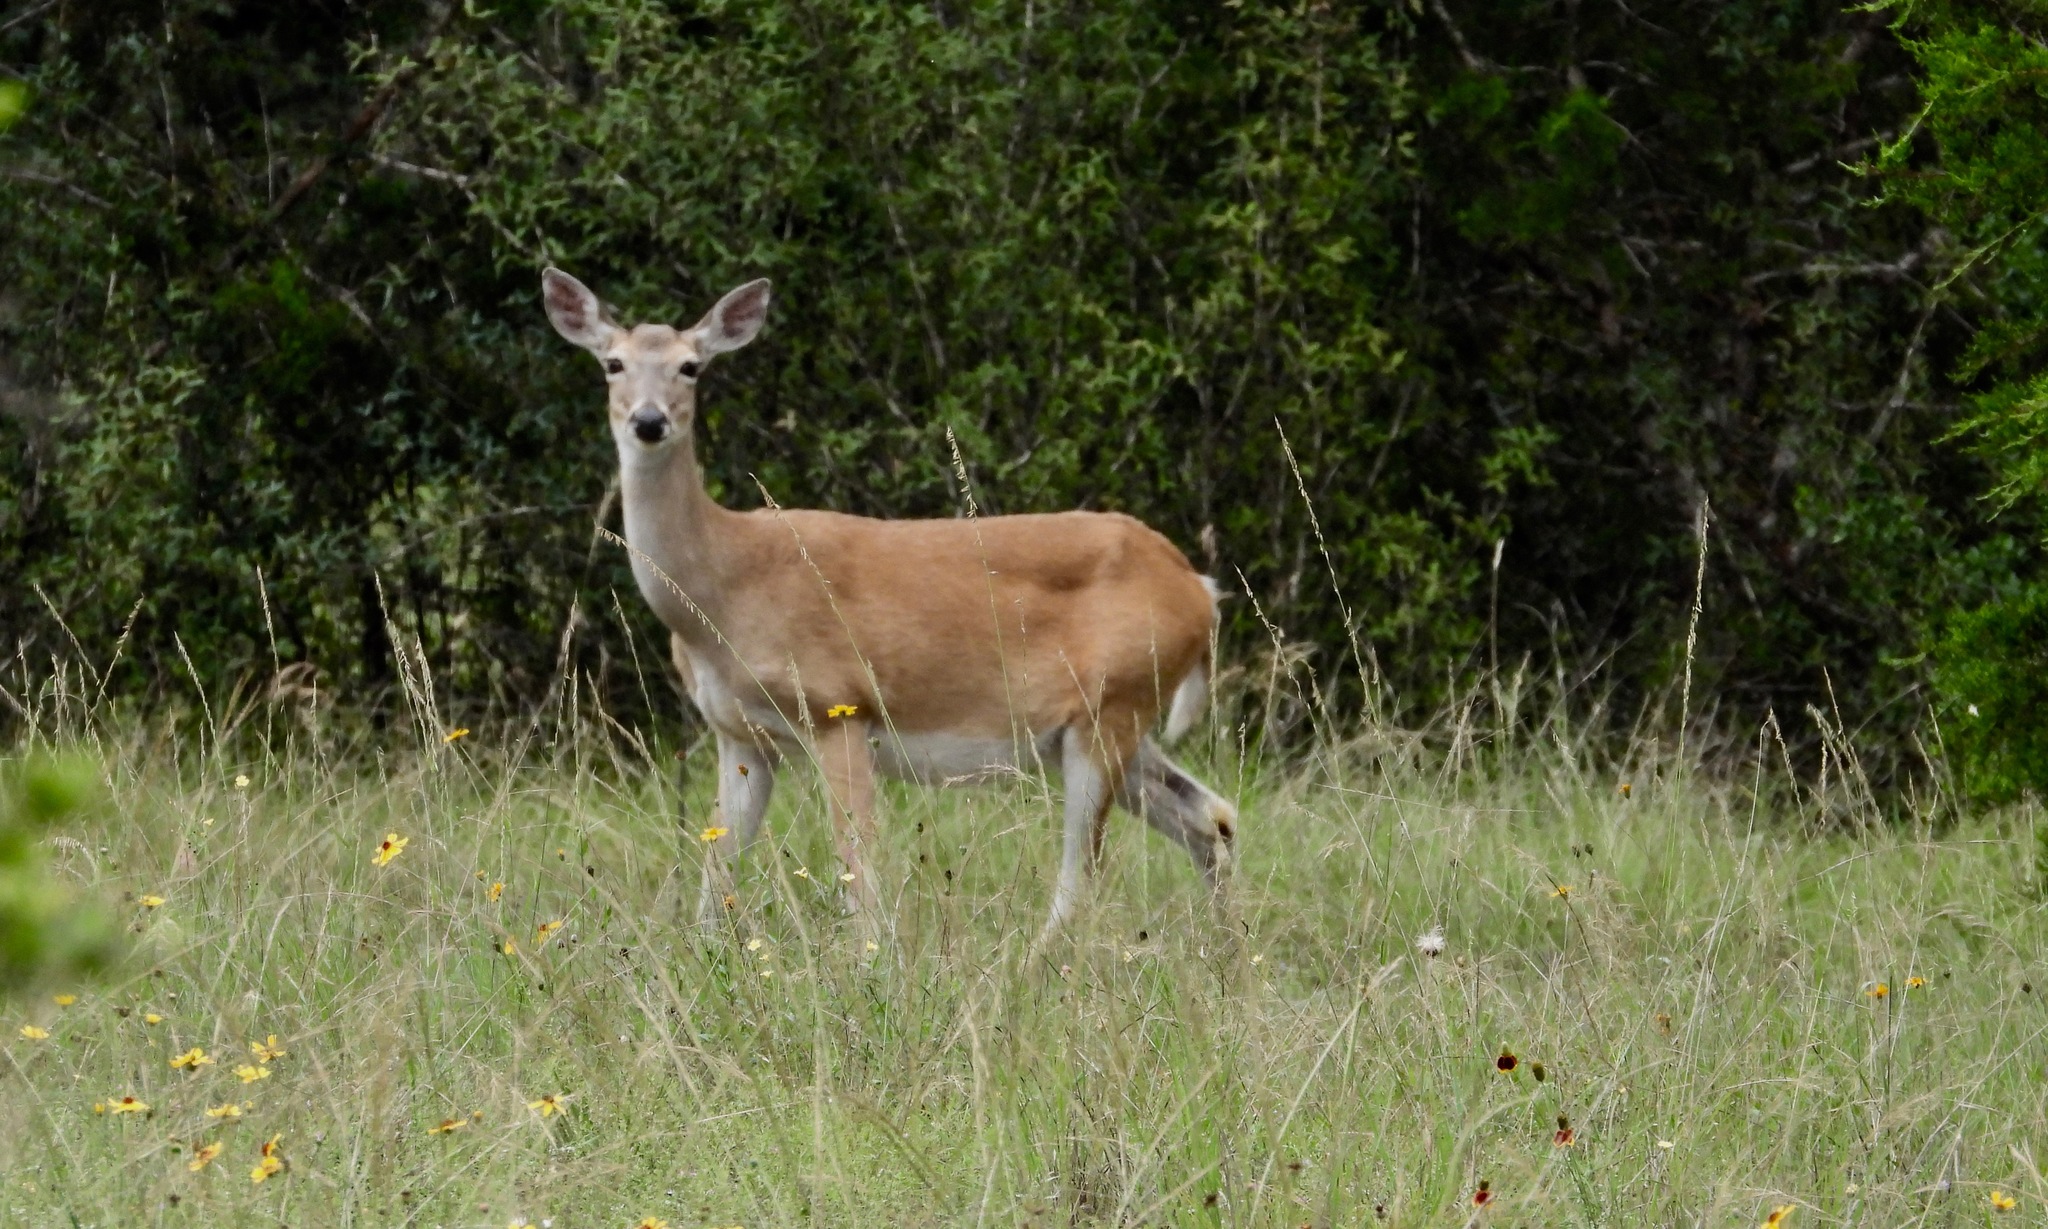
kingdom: Animalia
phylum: Chordata
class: Mammalia
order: Artiodactyla
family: Cervidae
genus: Odocoileus
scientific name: Odocoileus virginianus
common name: White-tailed deer
